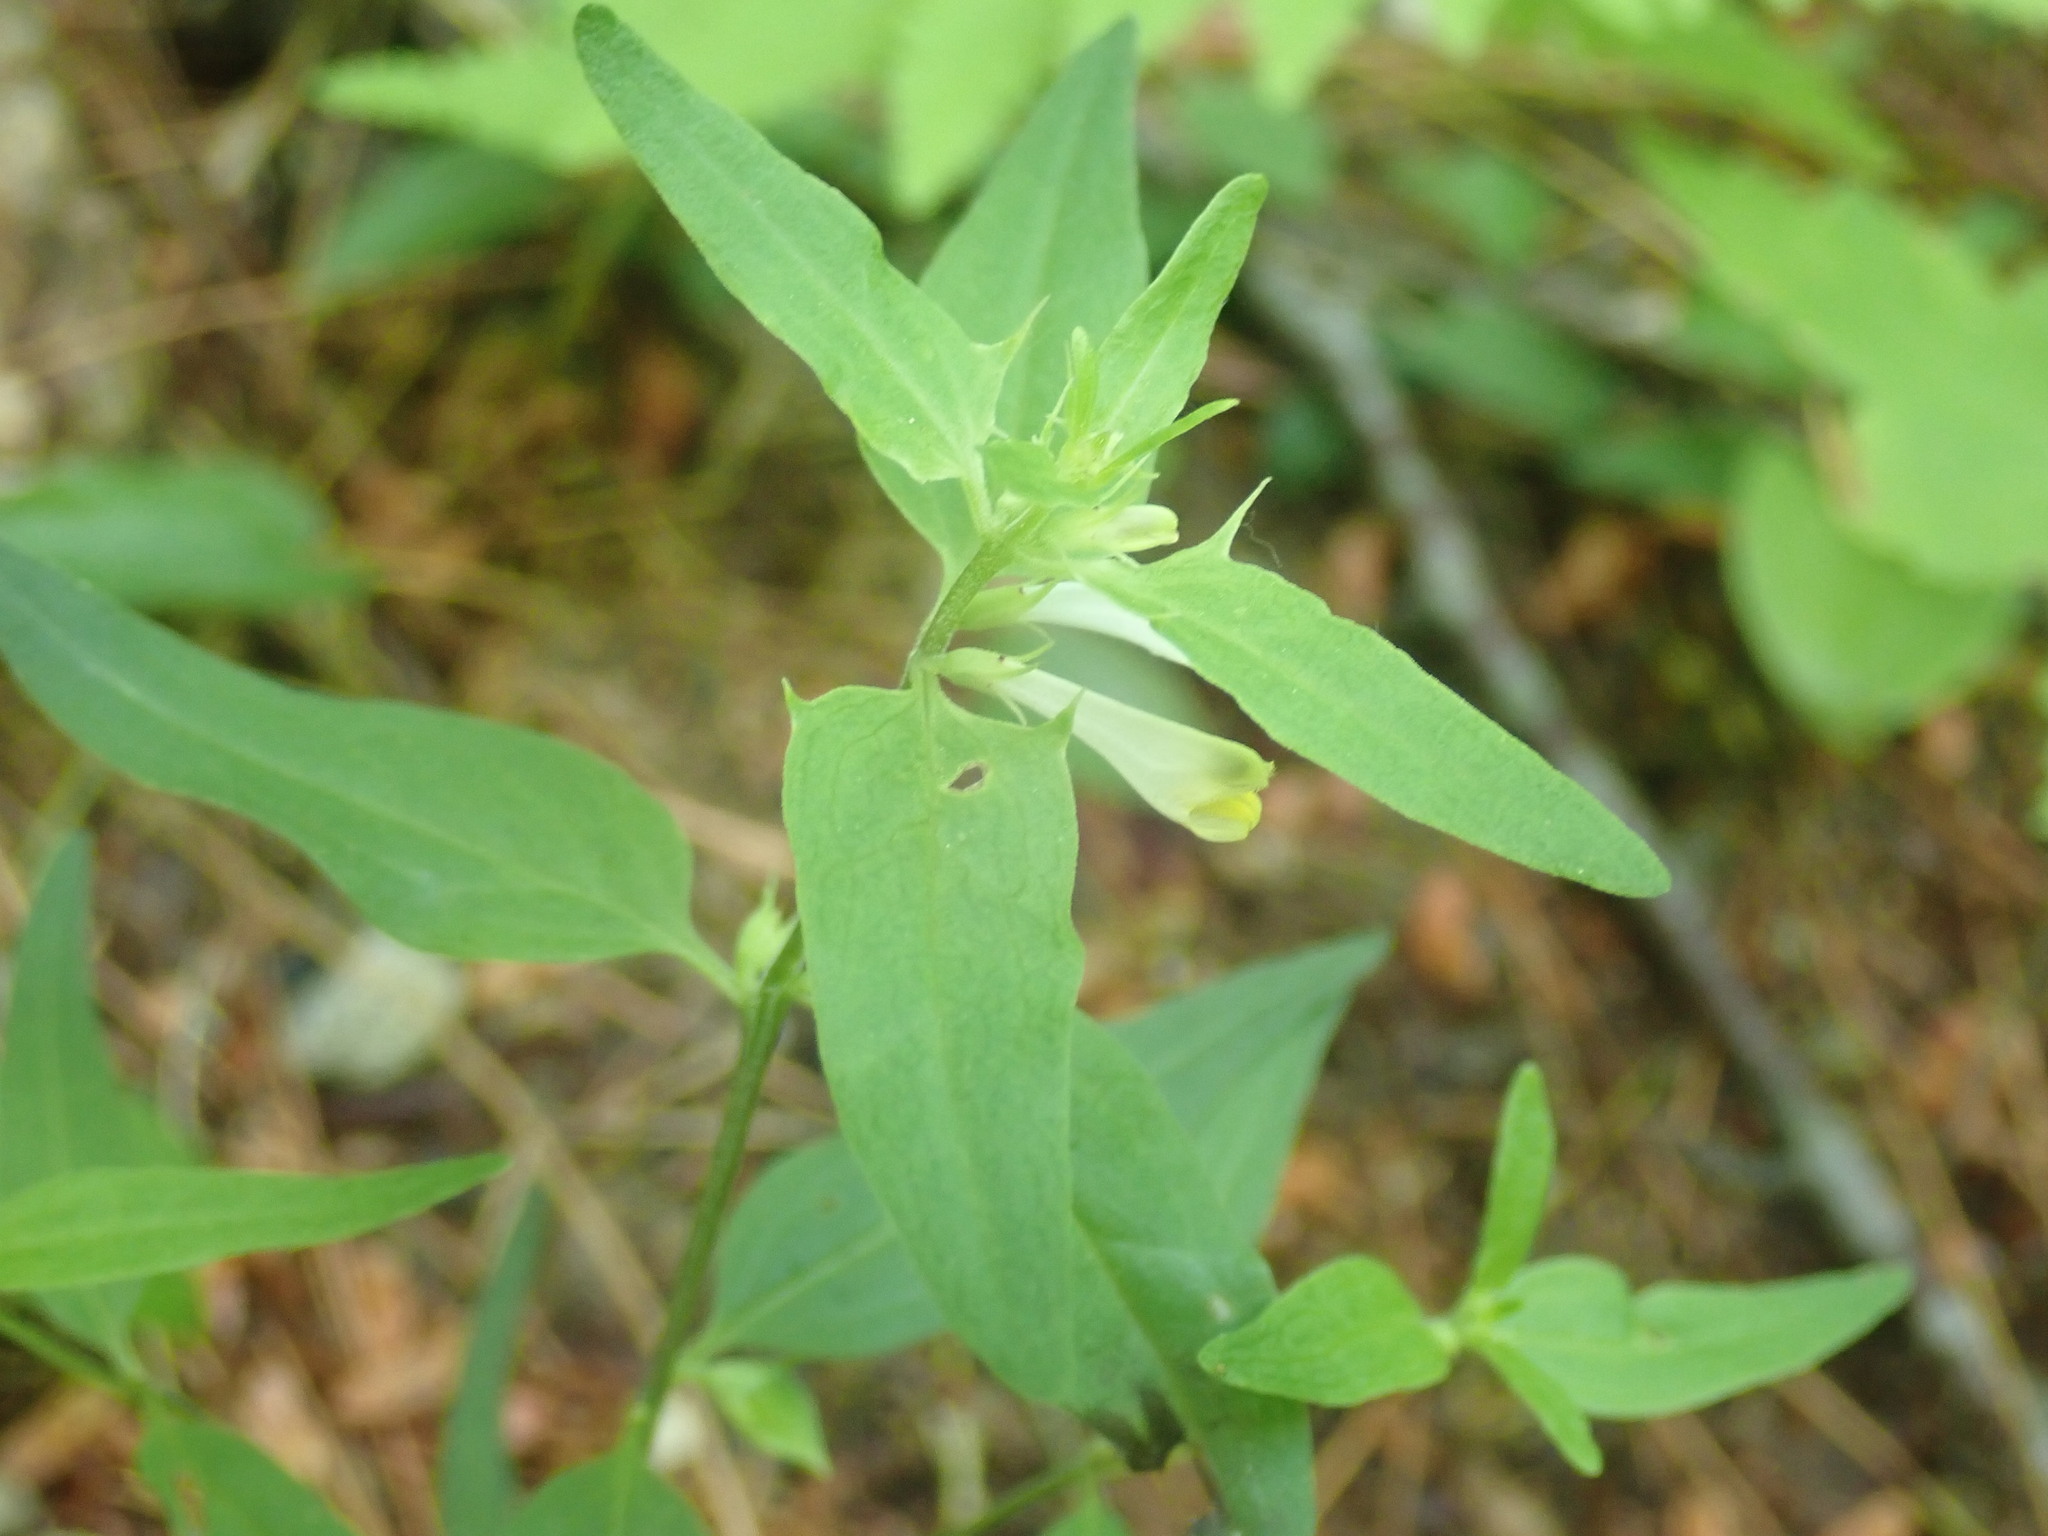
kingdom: Plantae
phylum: Tracheophyta
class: Magnoliopsida
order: Lamiales
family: Orobanchaceae
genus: Melampyrum
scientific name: Melampyrum lineare
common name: American cow-wheat
